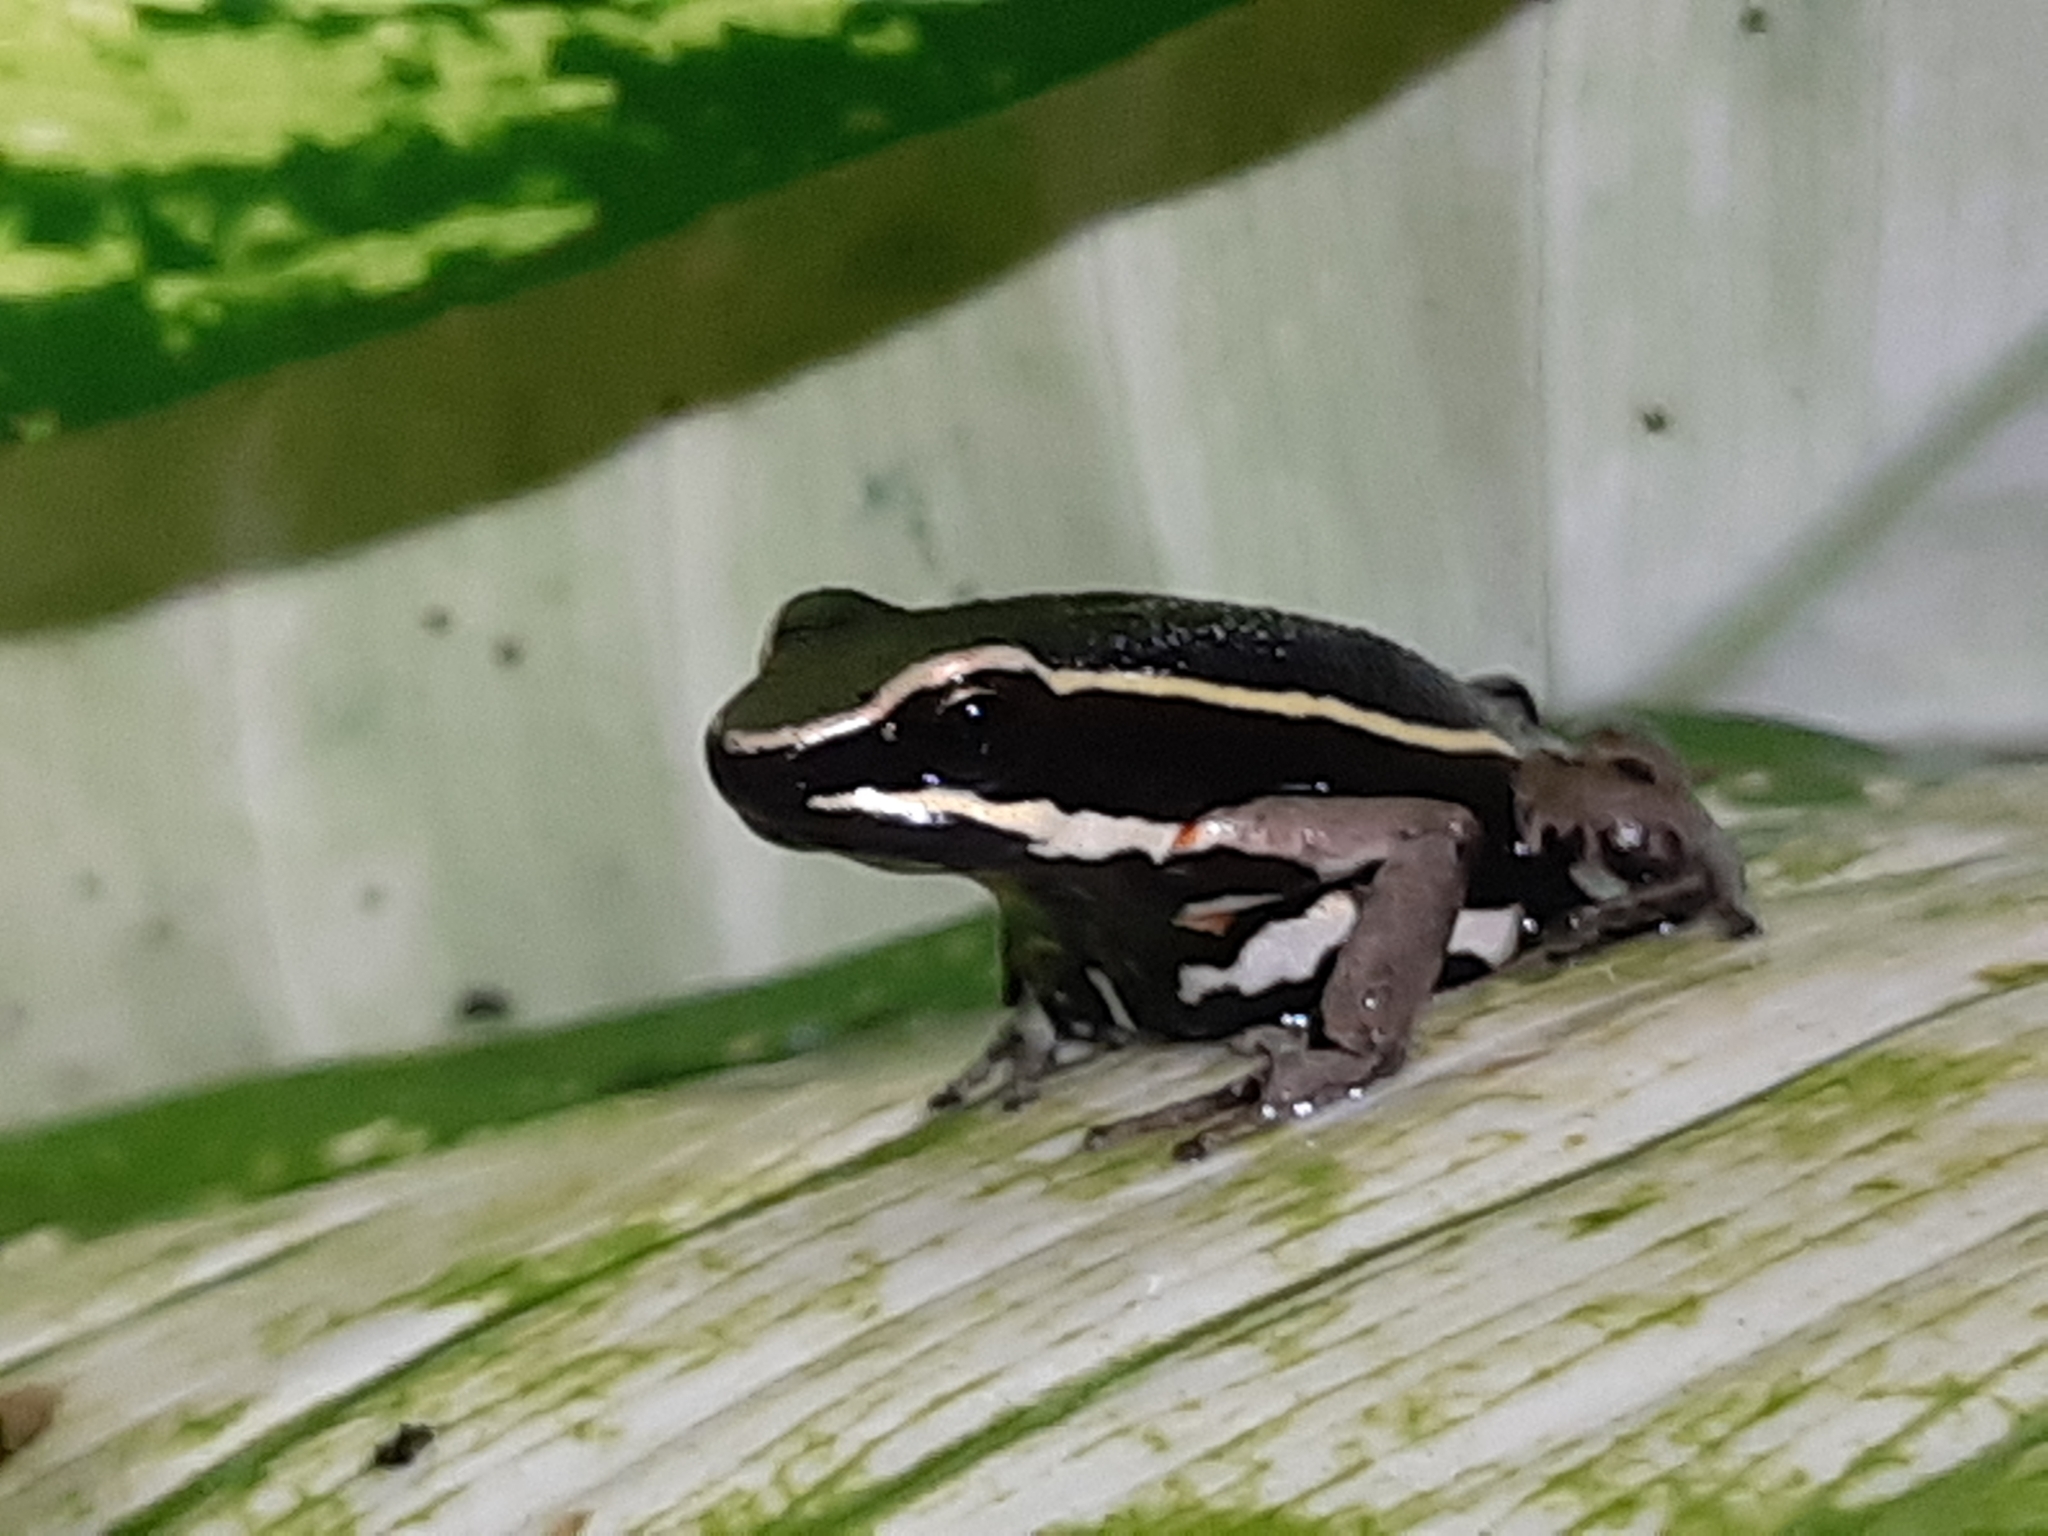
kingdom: Animalia
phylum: Chordata
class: Amphibia
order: Anura
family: Dendrobatidae
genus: Ameerega
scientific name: Ameerega picta
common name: Spot-legged poison frog
